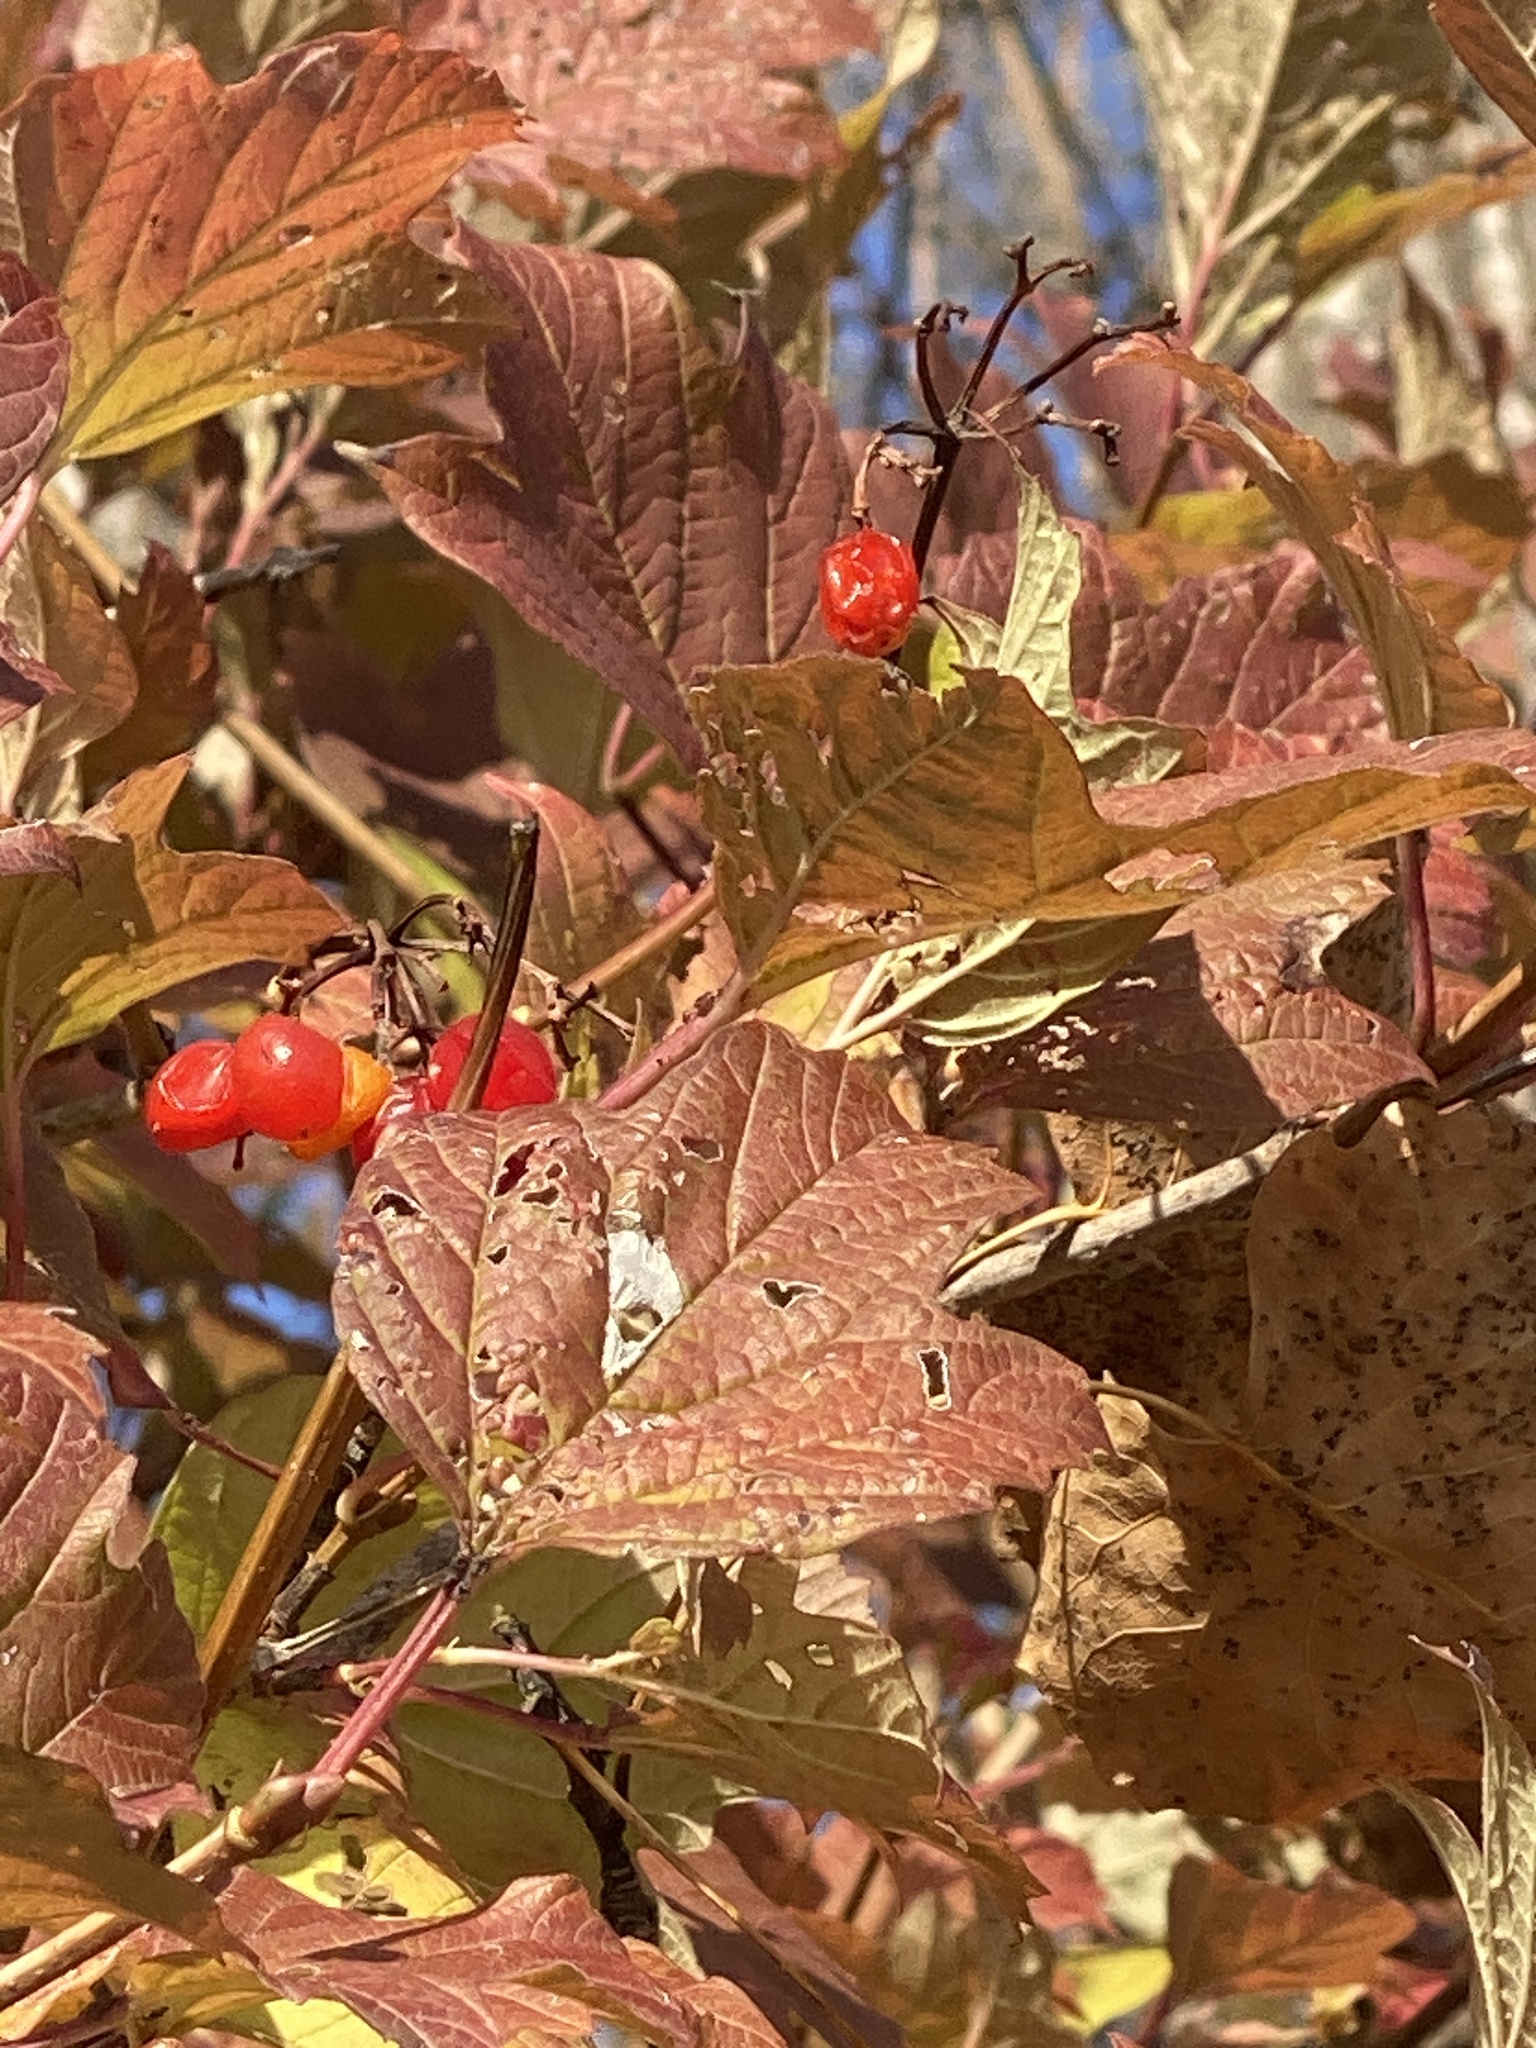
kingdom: Plantae
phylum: Tracheophyta
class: Magnoliopsida
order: Dipsacales
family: Viburnaceae
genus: Viburnum
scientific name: Viburnum opulus
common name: Guelder-rose
